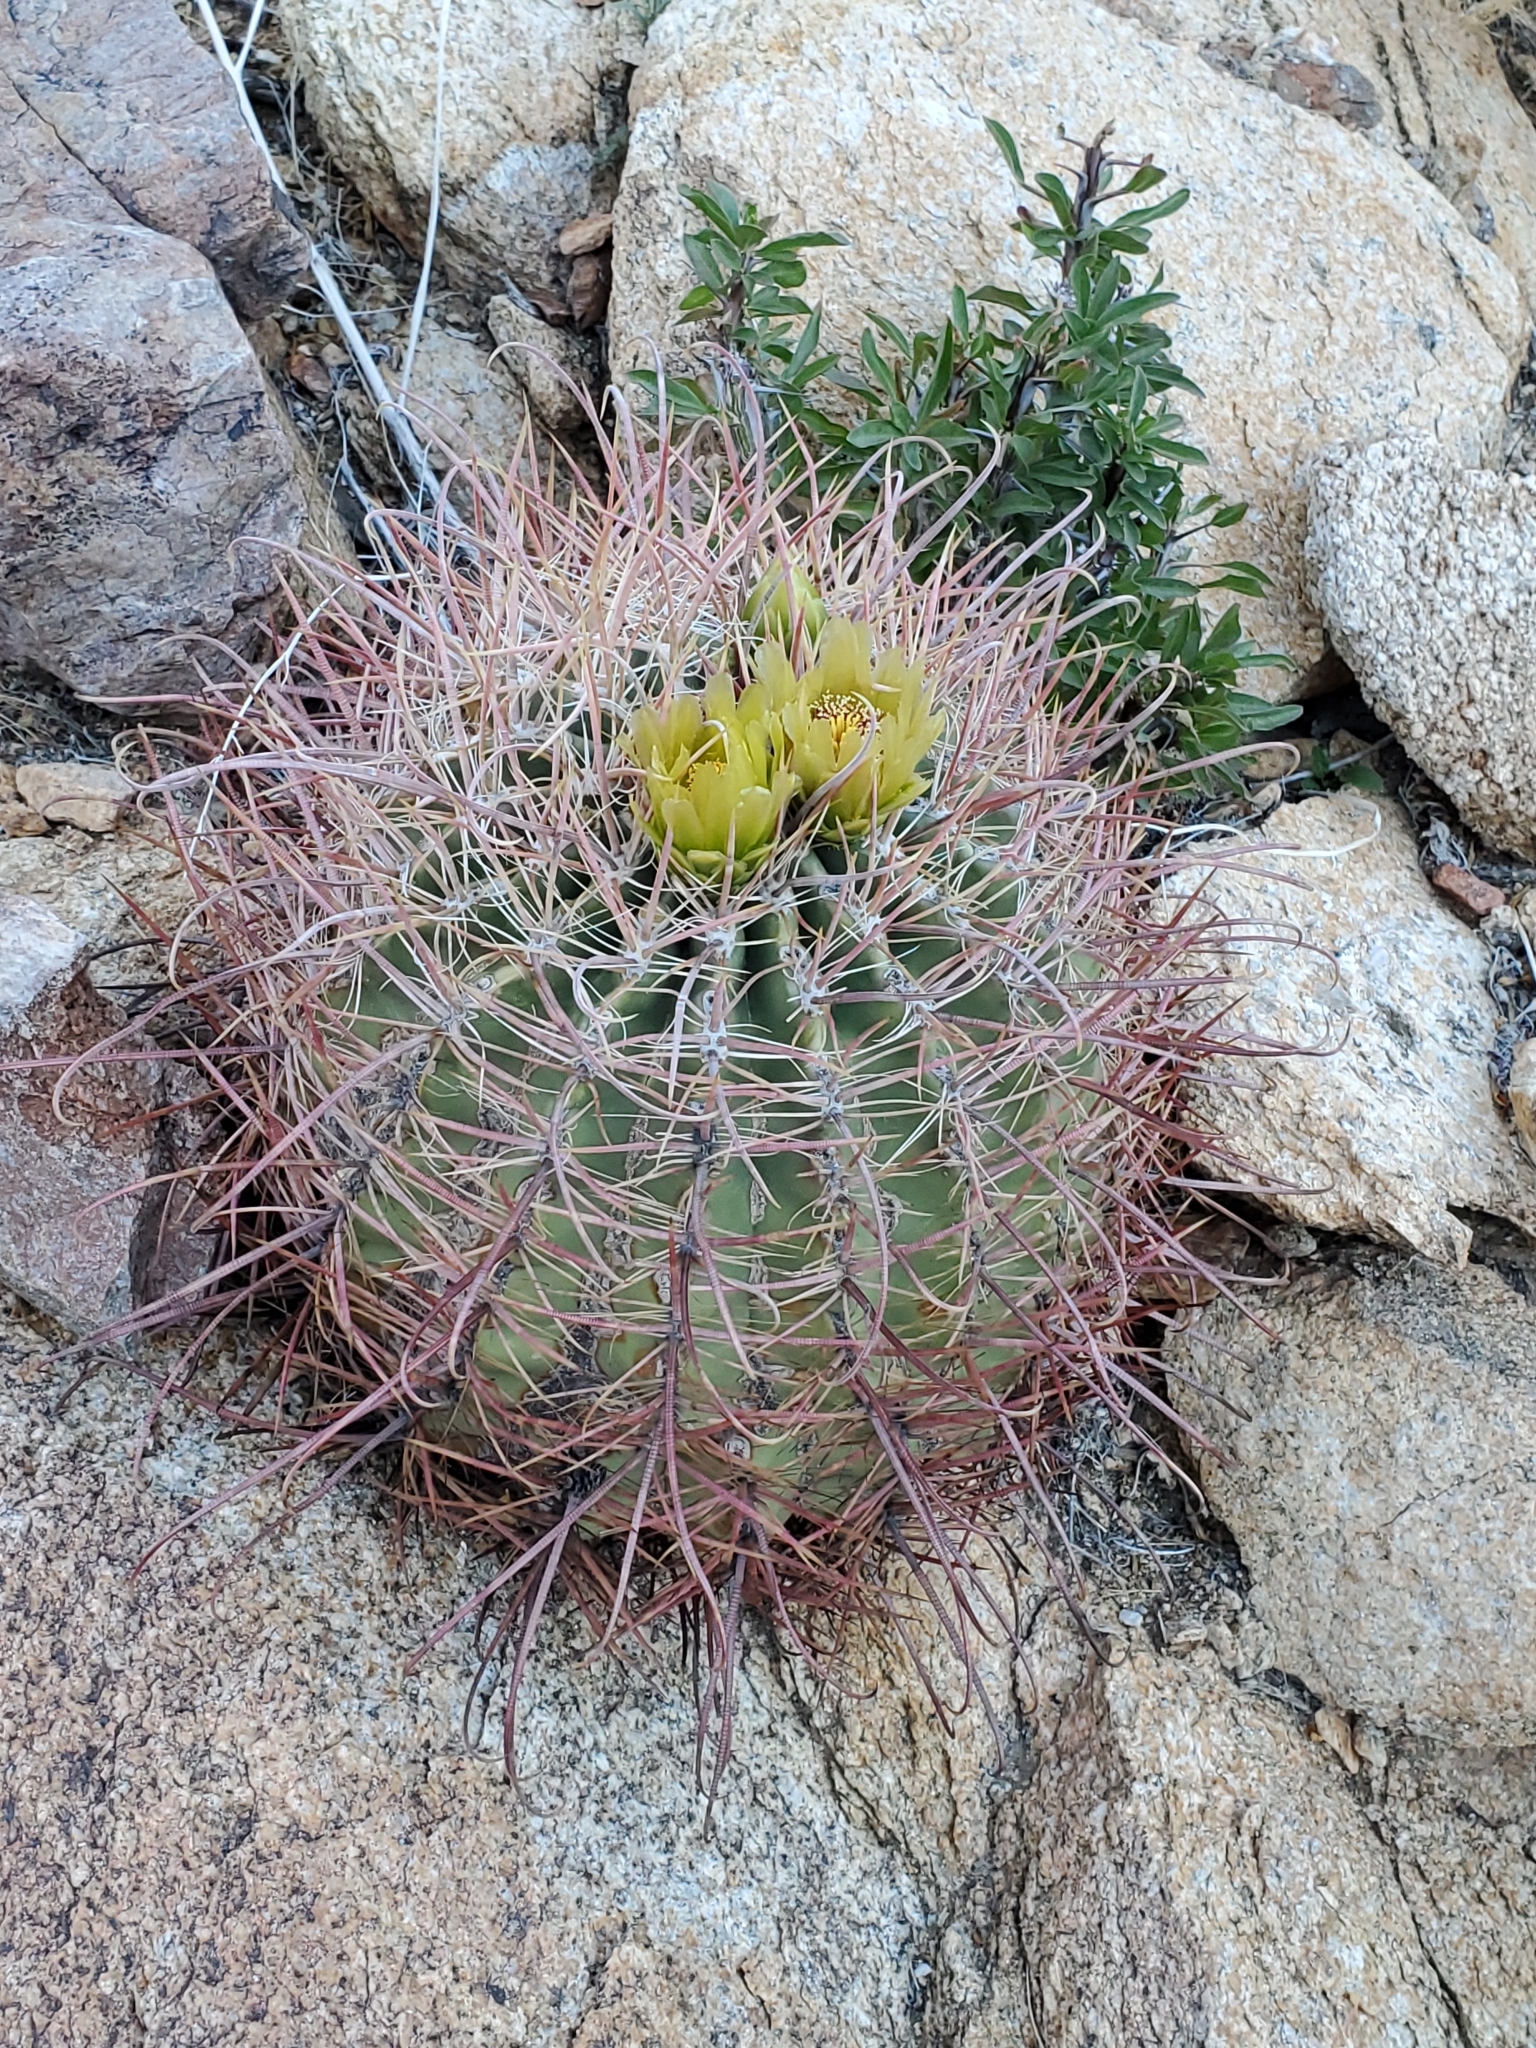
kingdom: Plantae
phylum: Tracheophyta
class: Magnoliopsida
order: Caryophyllales
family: Cactaceae
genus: Ferocactus
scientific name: Ferocactus cylindraceus
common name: California barrel cactus
